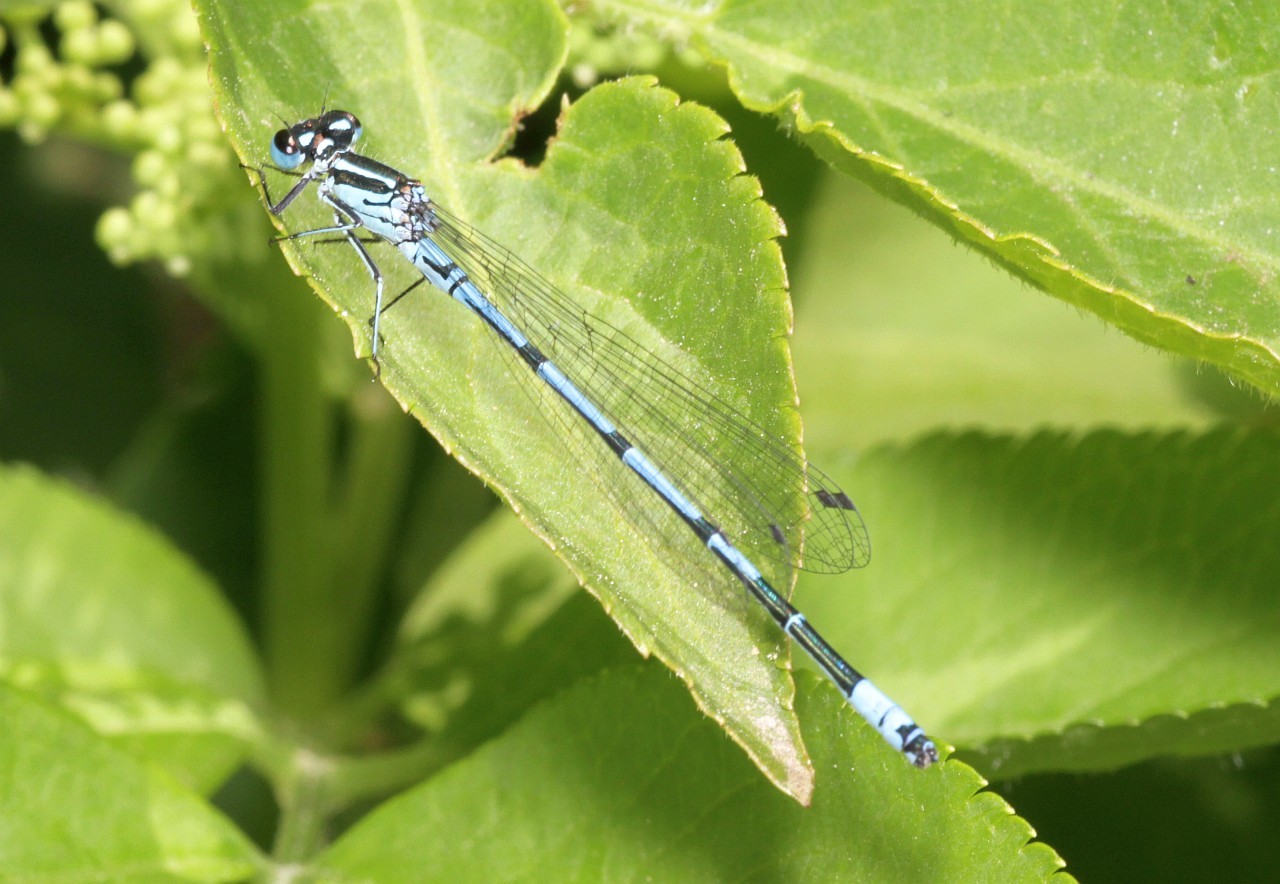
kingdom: Animalia
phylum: Arthropoda
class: Insecta
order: Odonata
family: Coenagrionidae
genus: Coenagrion
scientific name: Coenagrion puella
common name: Azure damselfly
